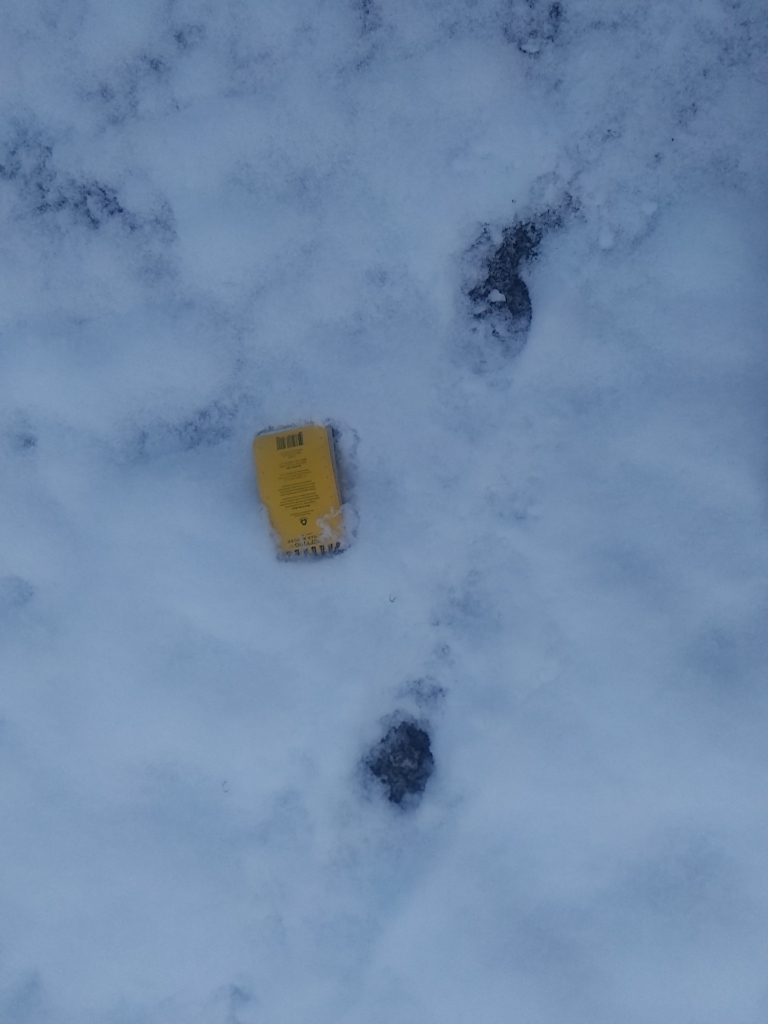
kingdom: Animalia
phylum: Chordata
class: Mammalia
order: Artiodactyla
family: Cervidae
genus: Odocoileus
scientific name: Odocoileus virginianus
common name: White-tailed deer
